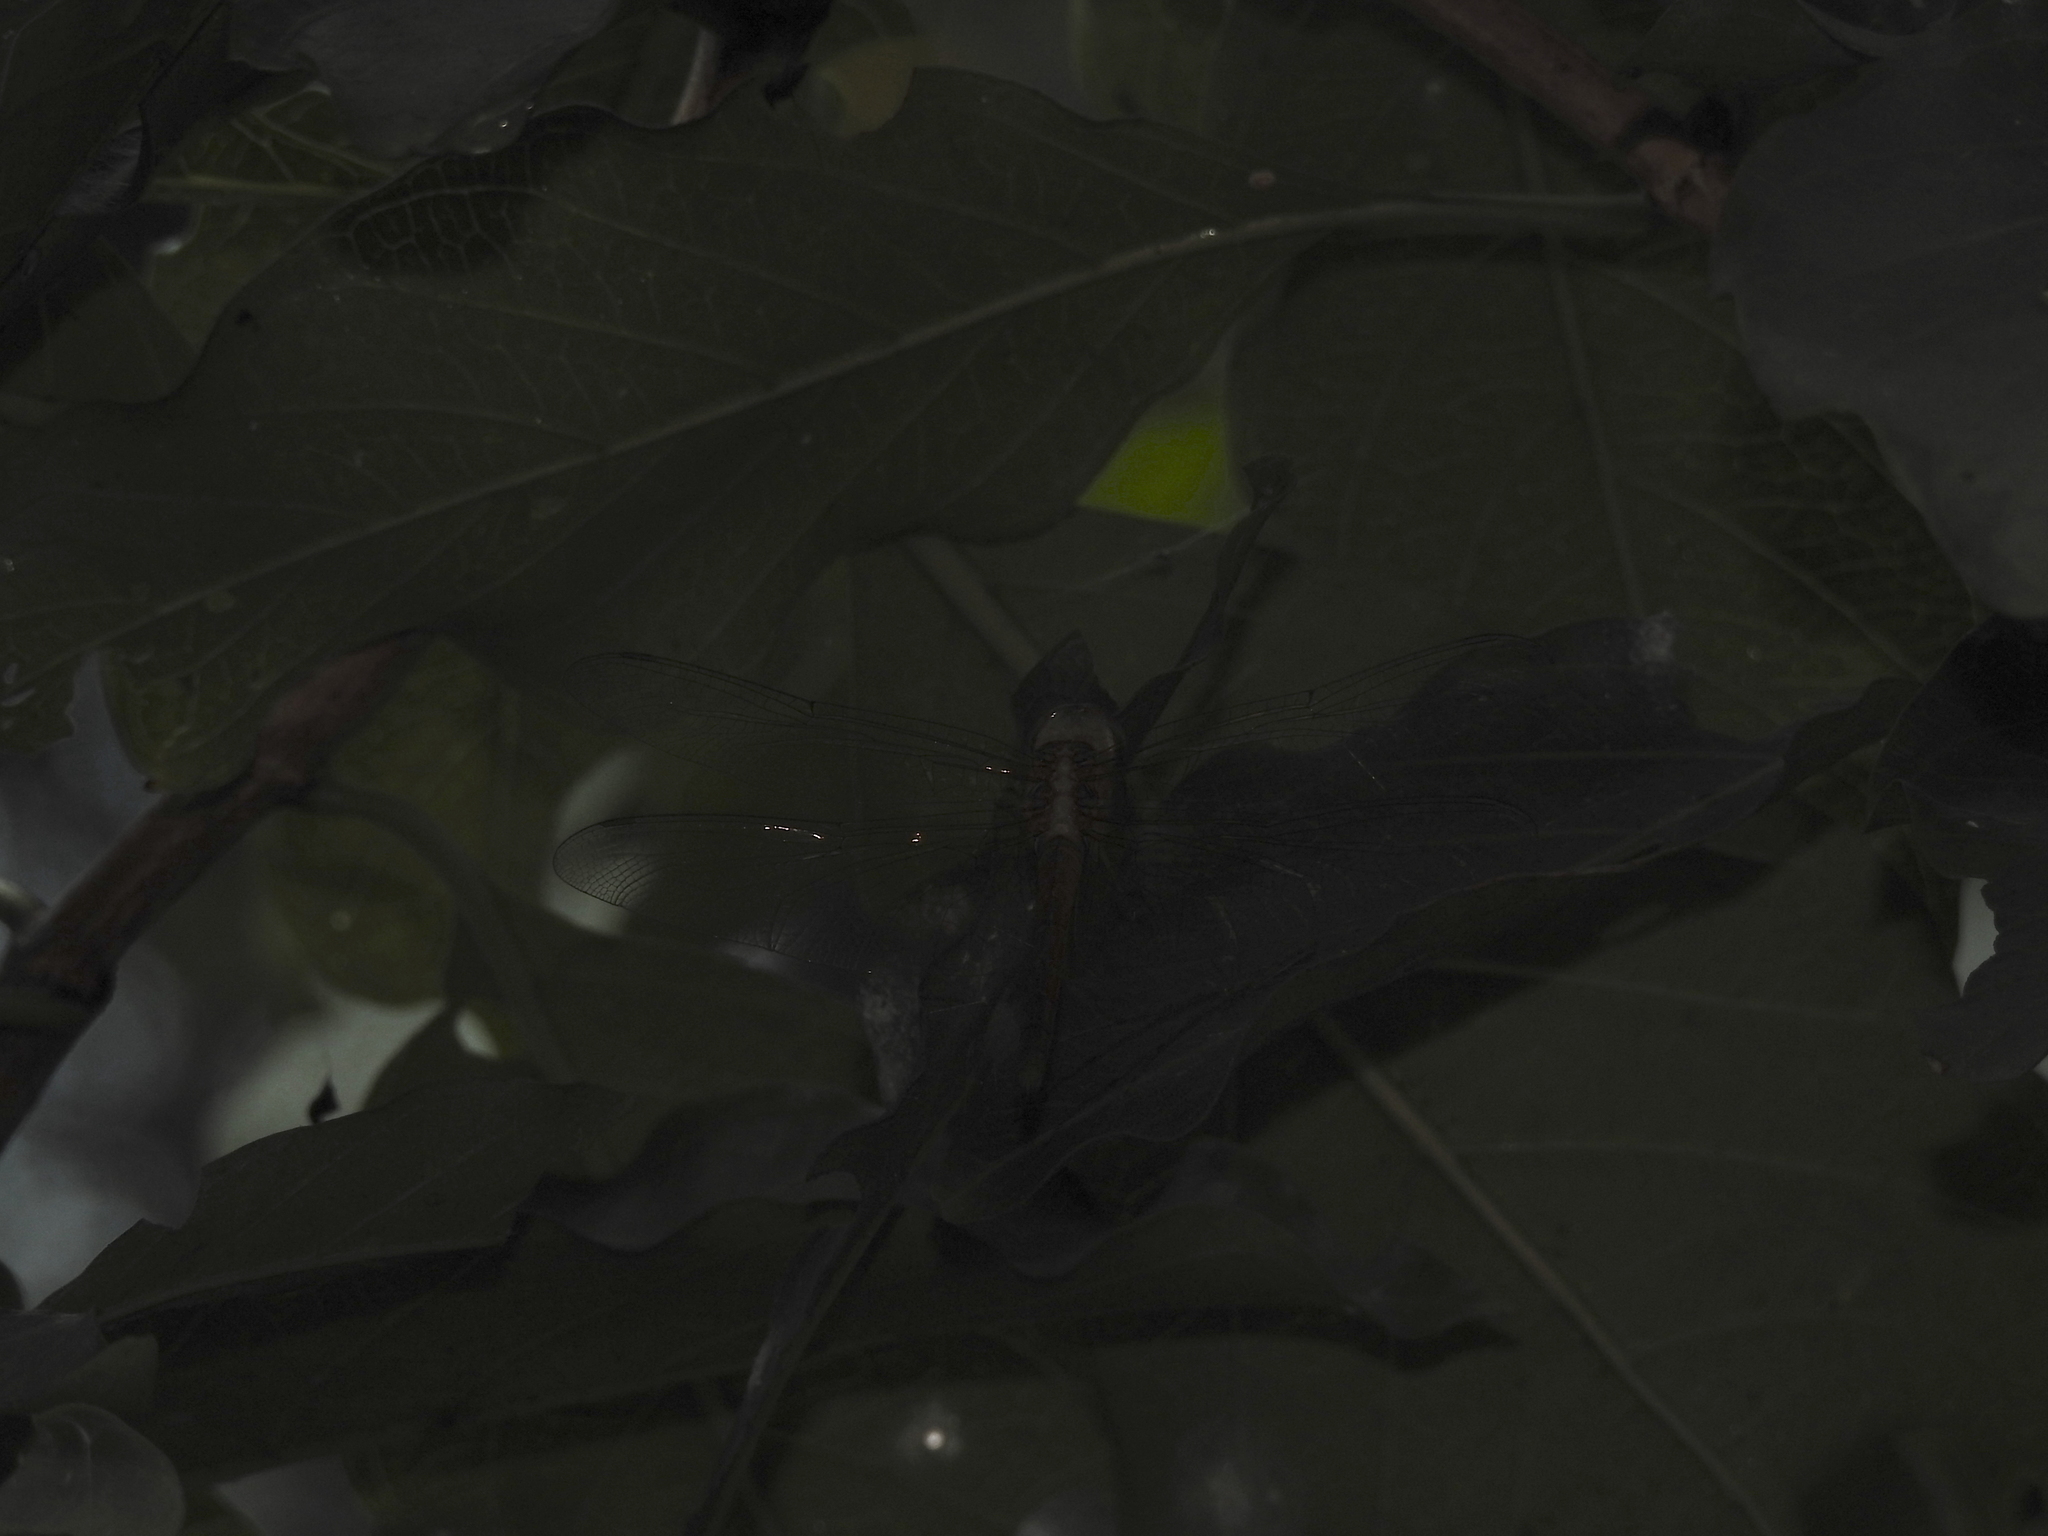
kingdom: Animalia
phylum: Arthropoda
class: Insecta
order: Odonata
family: Libellulidae
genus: Tholymis
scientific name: Tholymis tillarga
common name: Coral-tailed cloud wing
